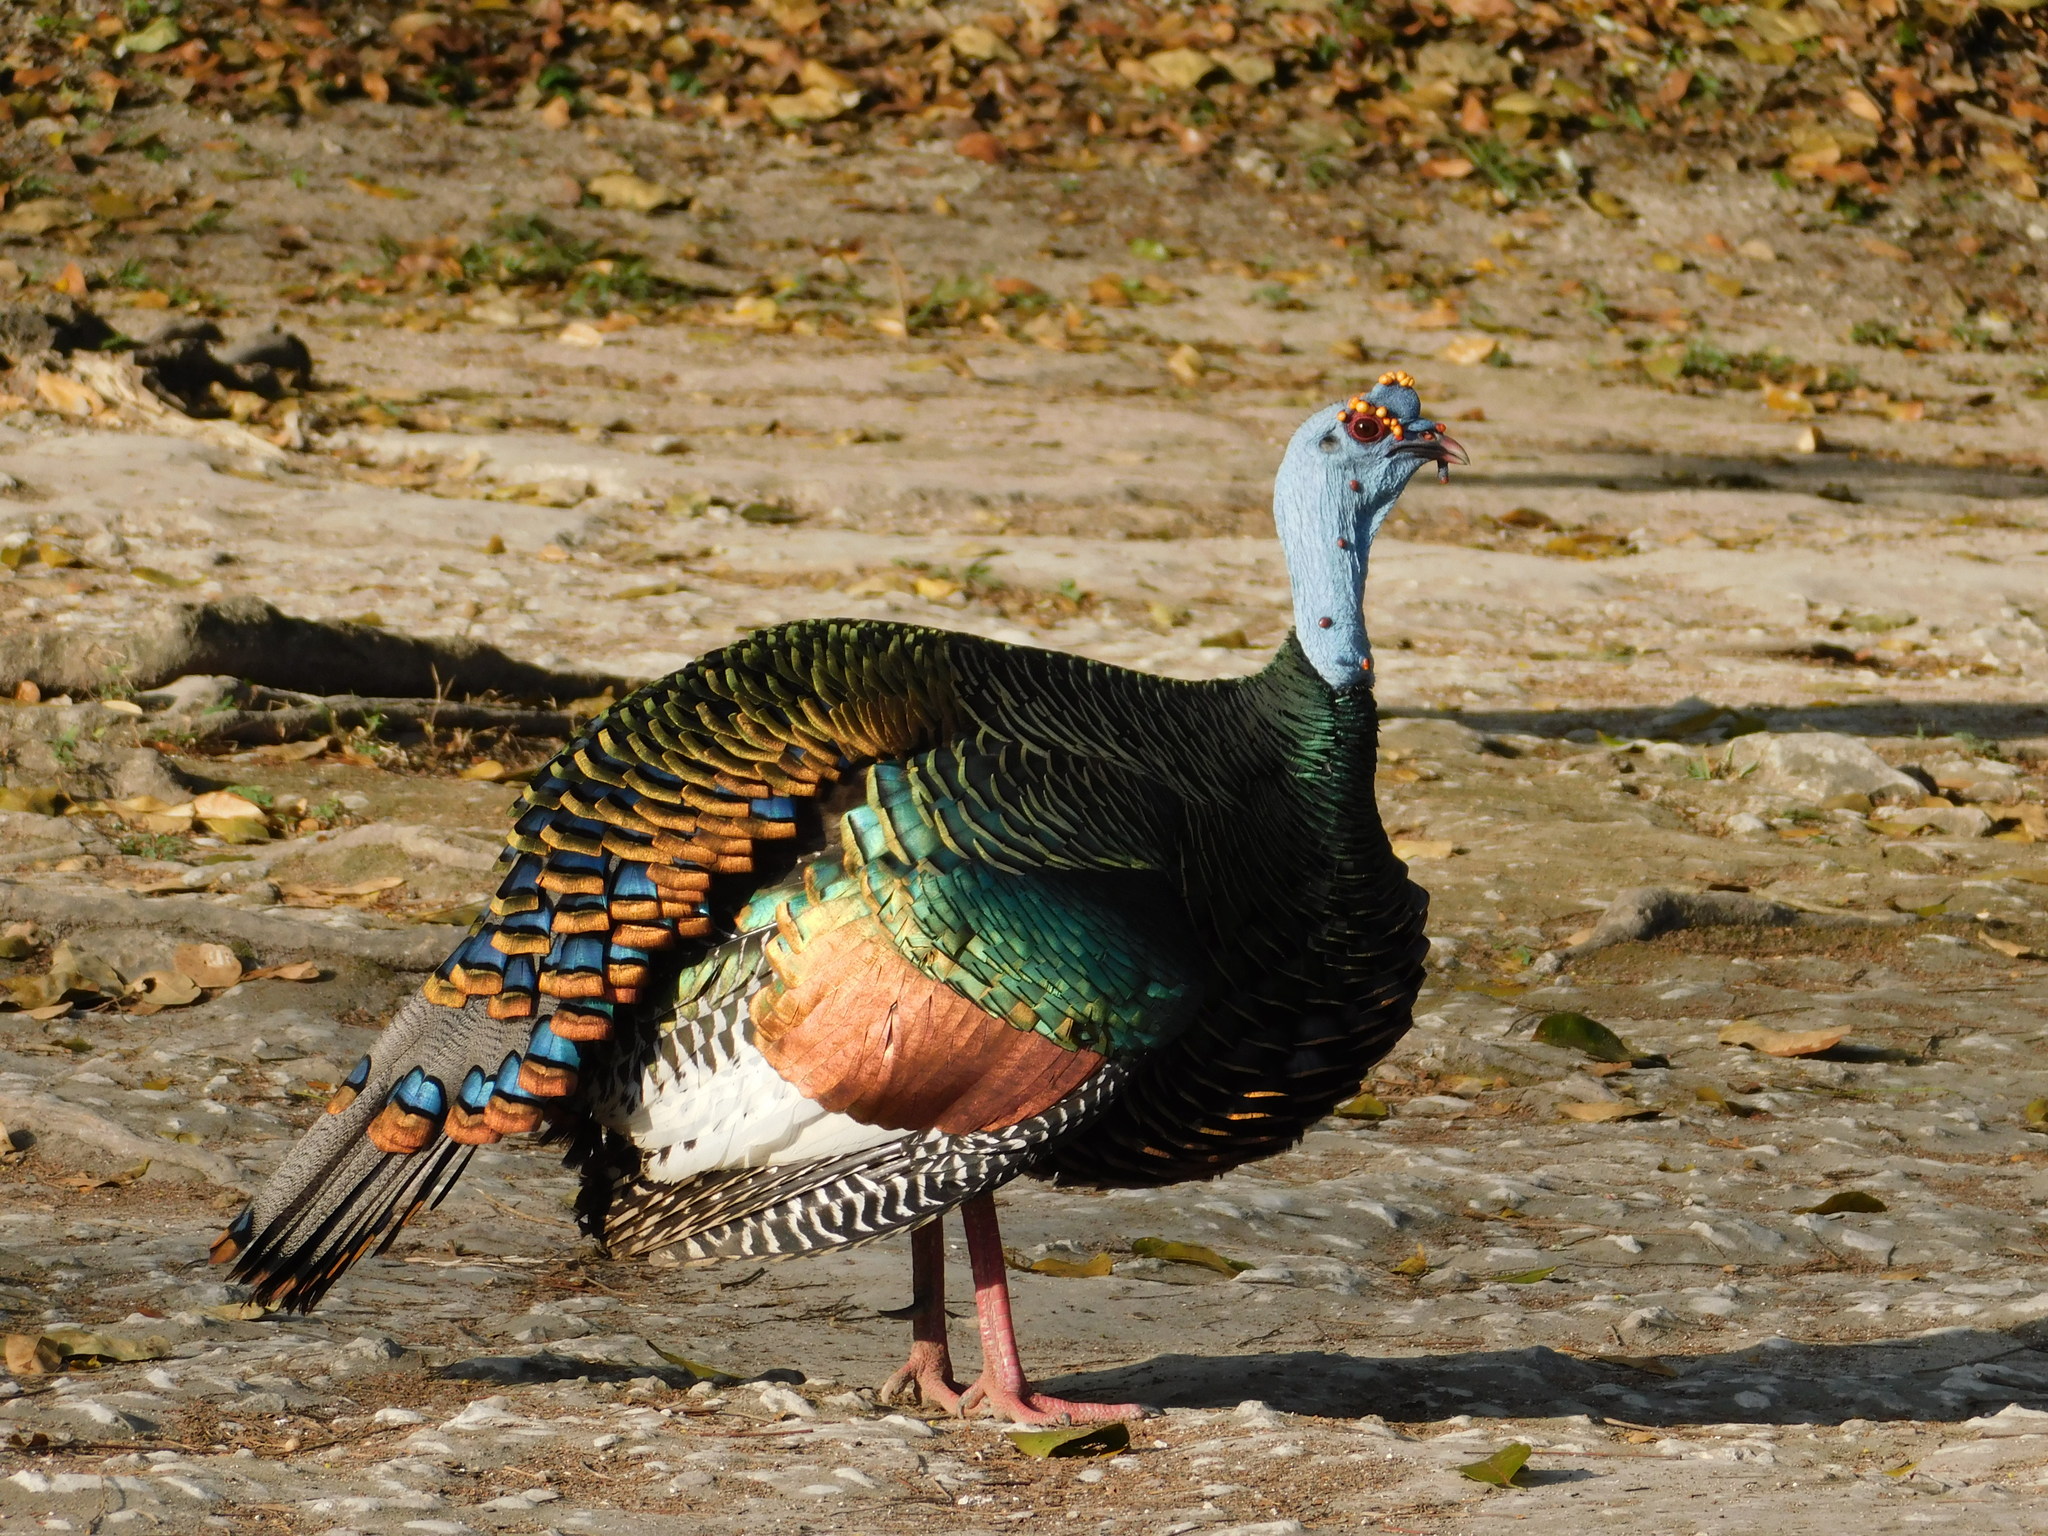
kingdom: Animalia
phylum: Chordata
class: Aves
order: Galliformes
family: Phasianidae
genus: Meleagris
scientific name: Meleagris ocellata
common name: Ocellated turkey
